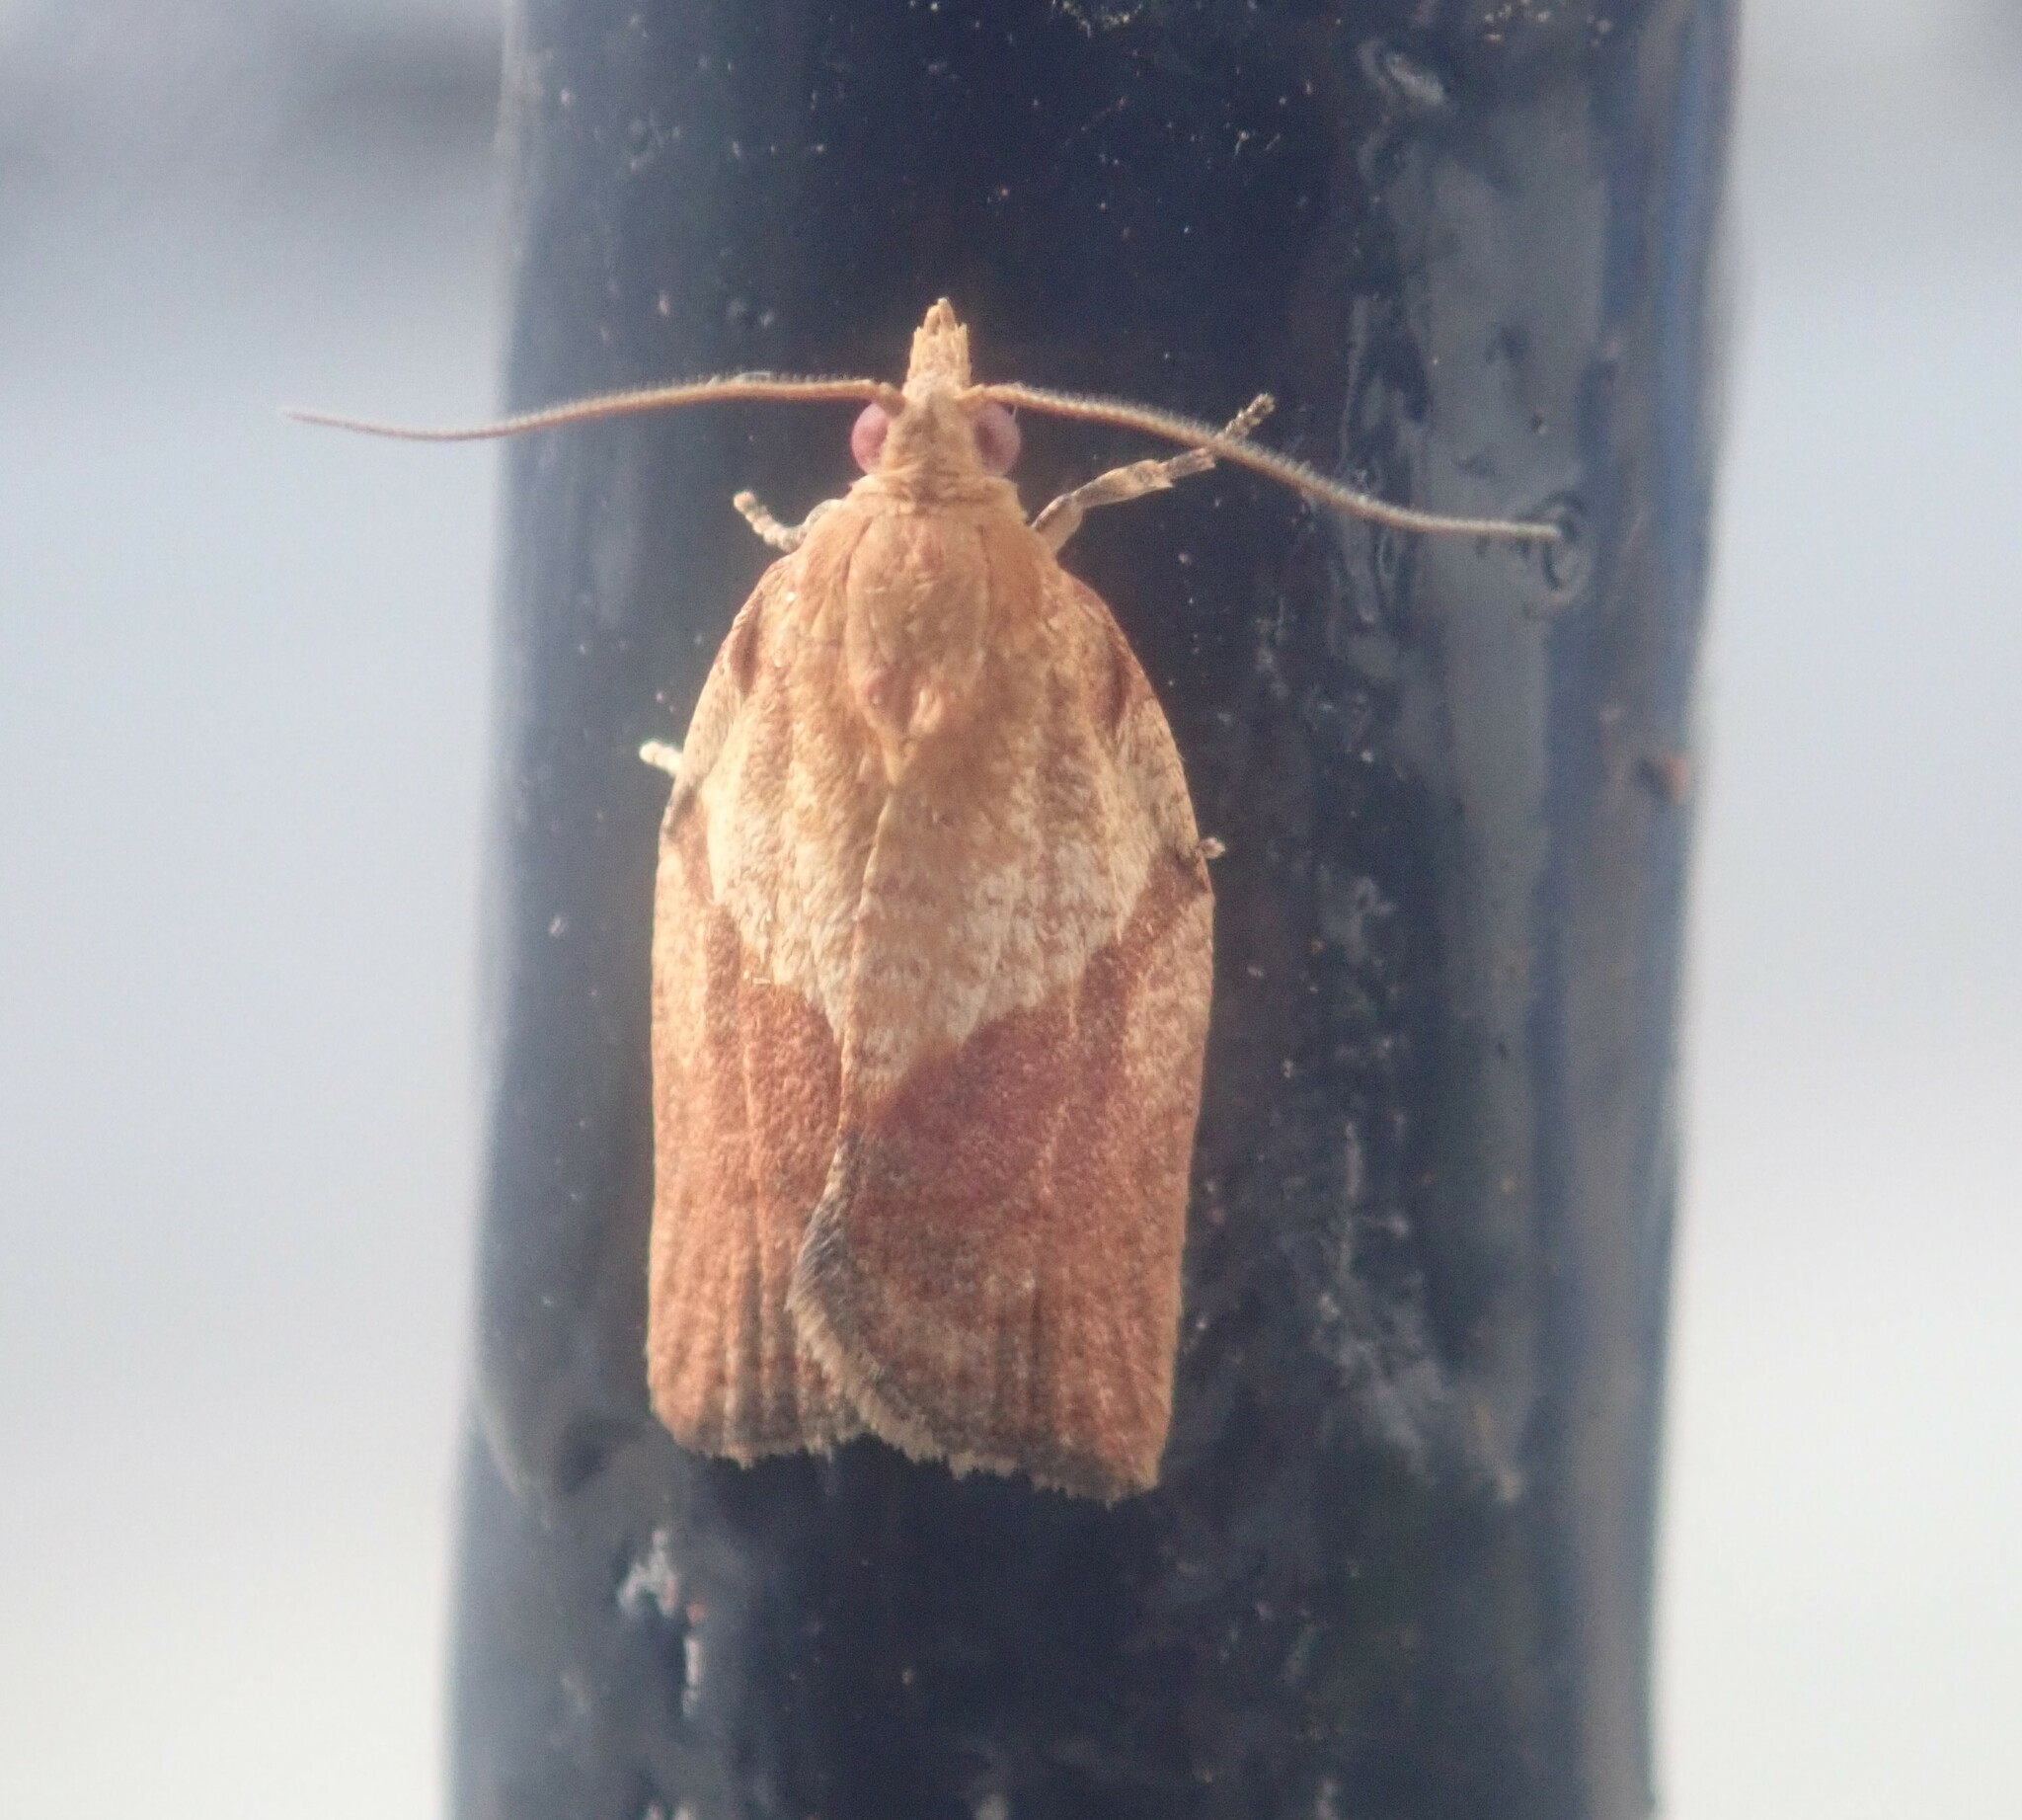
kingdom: Animalia
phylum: Arthropoda
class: Insecta
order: Lepidoptera
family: Tortricidae
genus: Epiphyas
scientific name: Epiphyas postvittana
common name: Light brown apple moth
